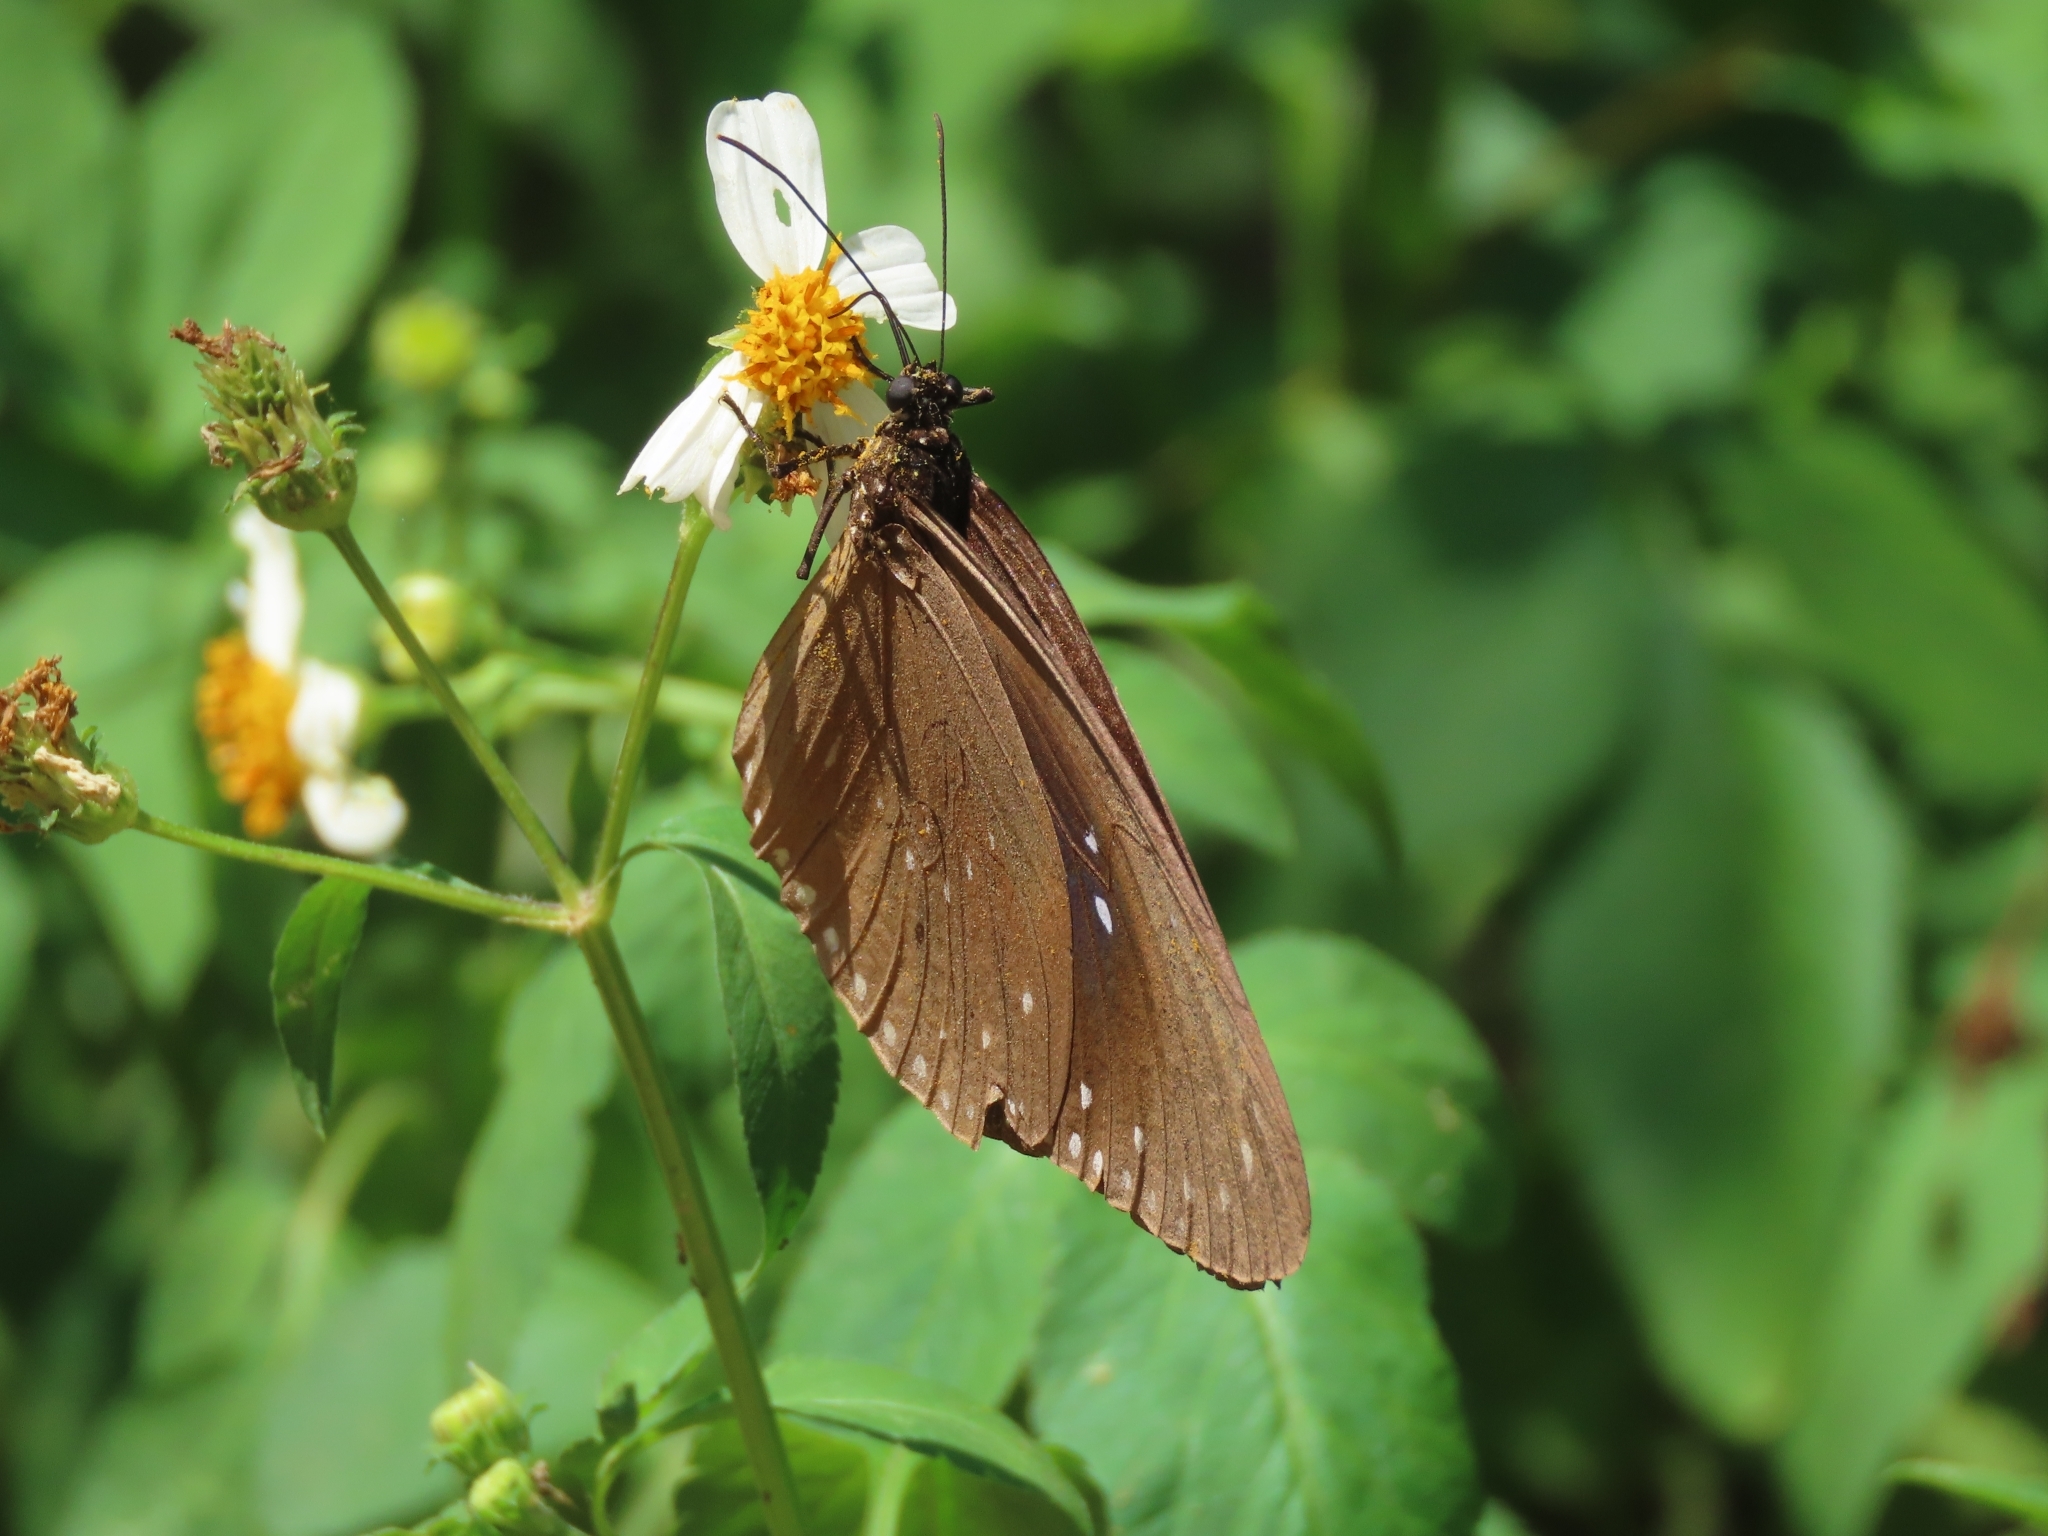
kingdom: Animalia
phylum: Arthropoda
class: Insecta
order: Lepidoptera
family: Nymphalidae
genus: Euploea
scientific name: Euploea sylvester
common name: Double-branded crow butterfly
